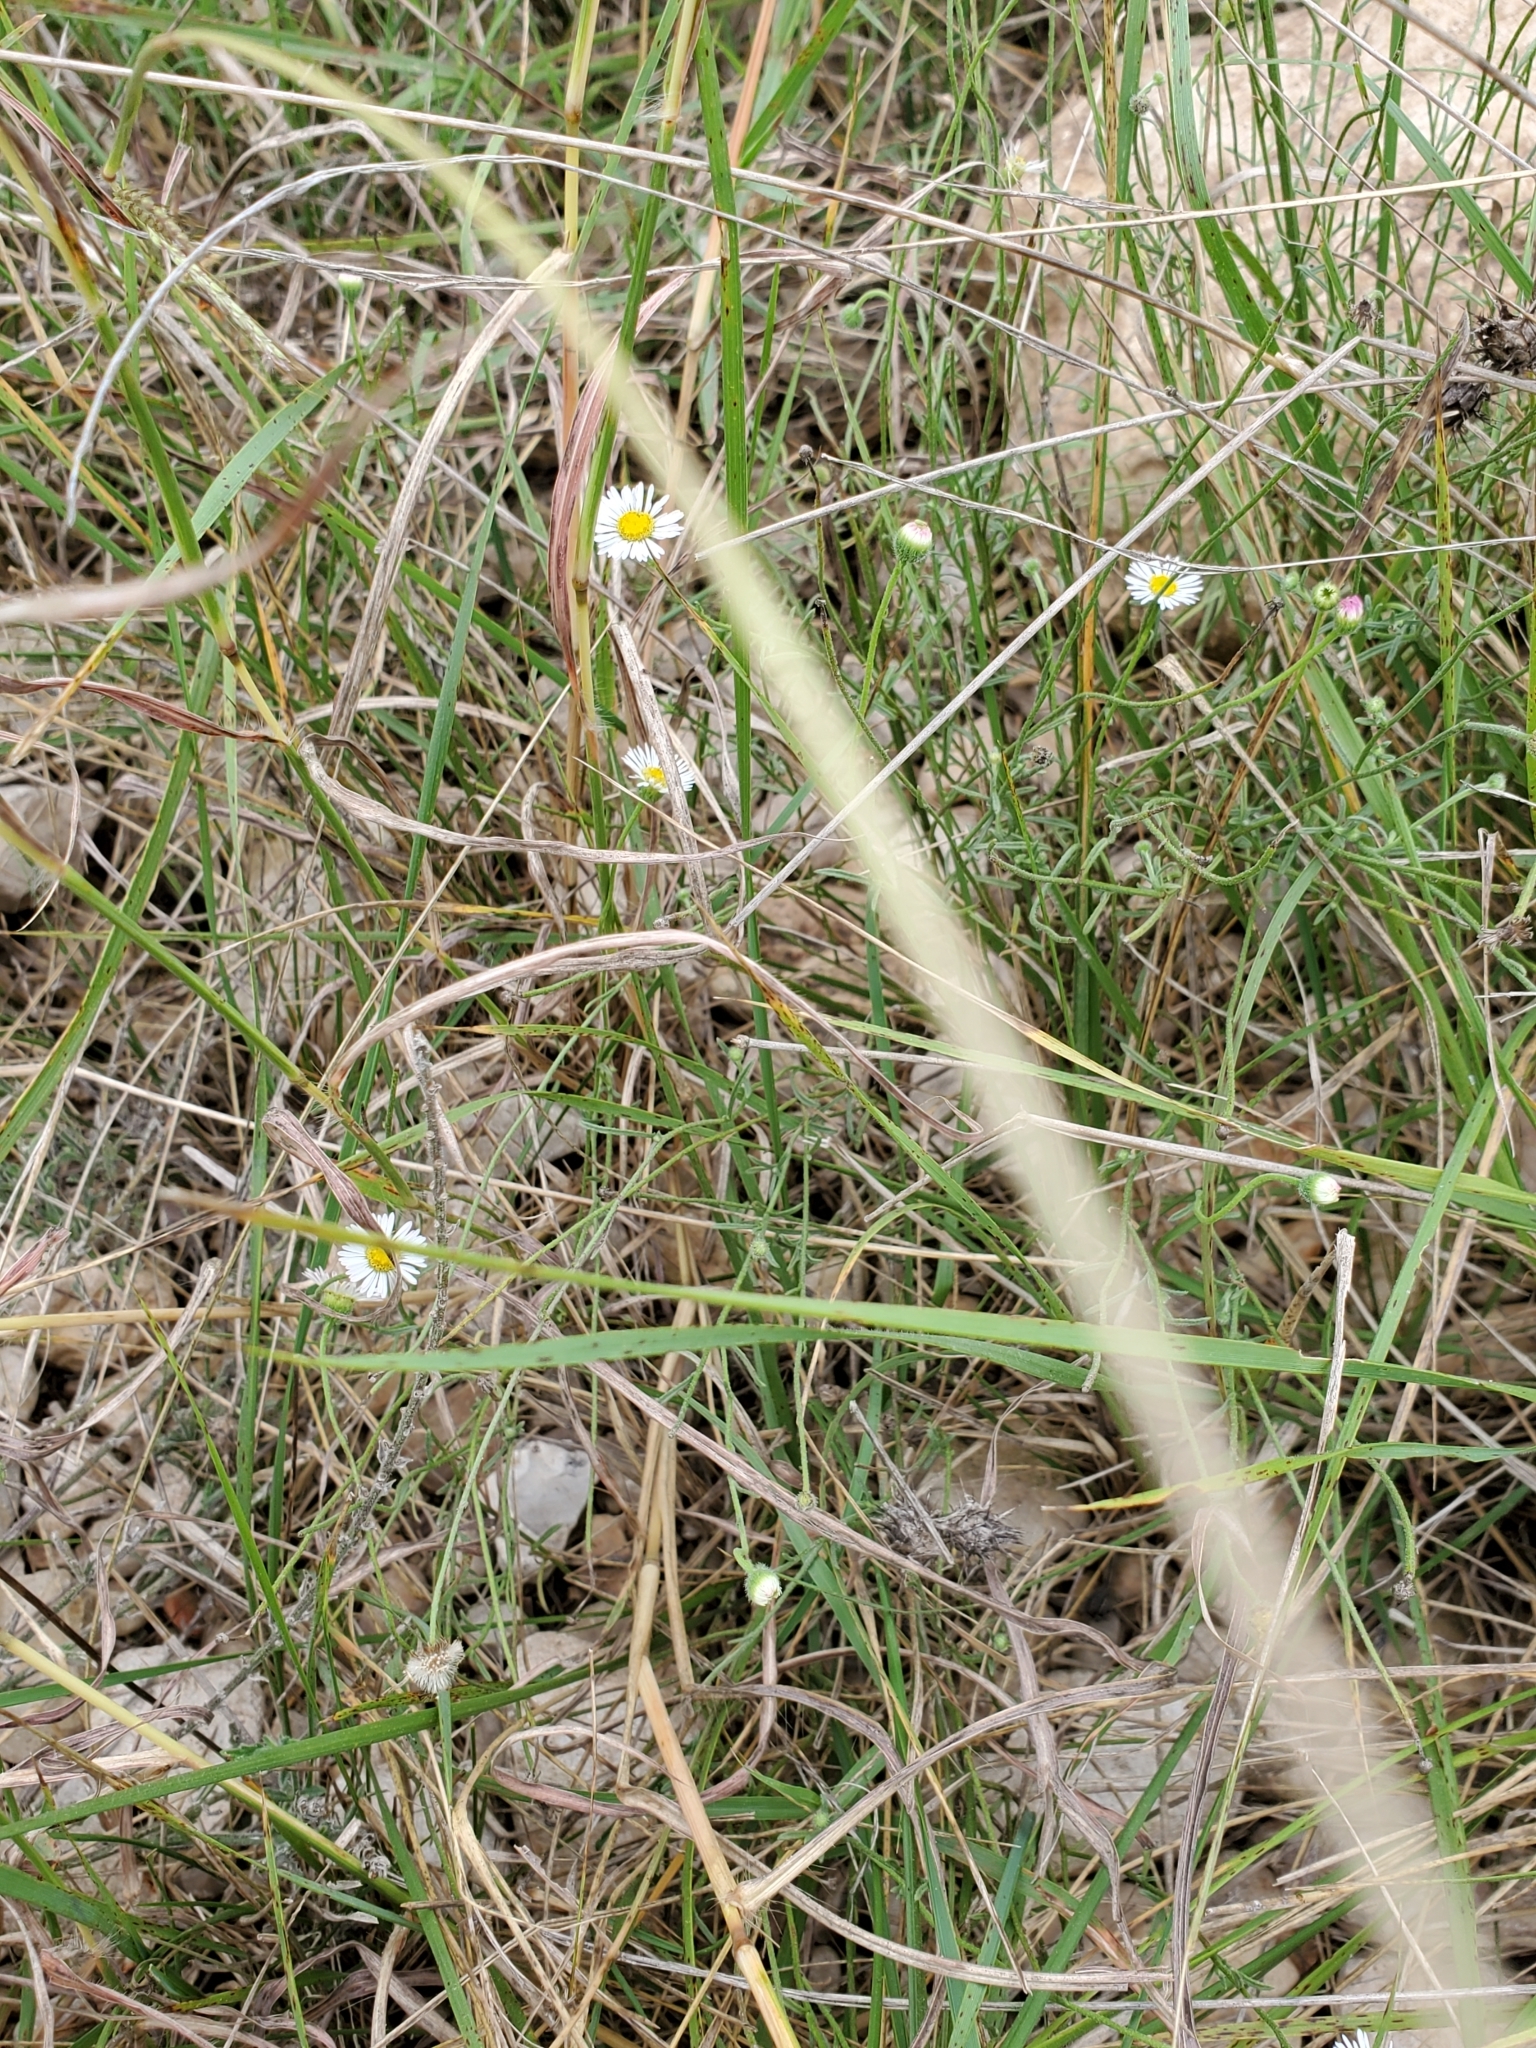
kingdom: Plantae
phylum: Tracheophyta
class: Magnoliopsida
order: Asterales
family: Asteraceae
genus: Erigeron
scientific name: Erigeron modestus
